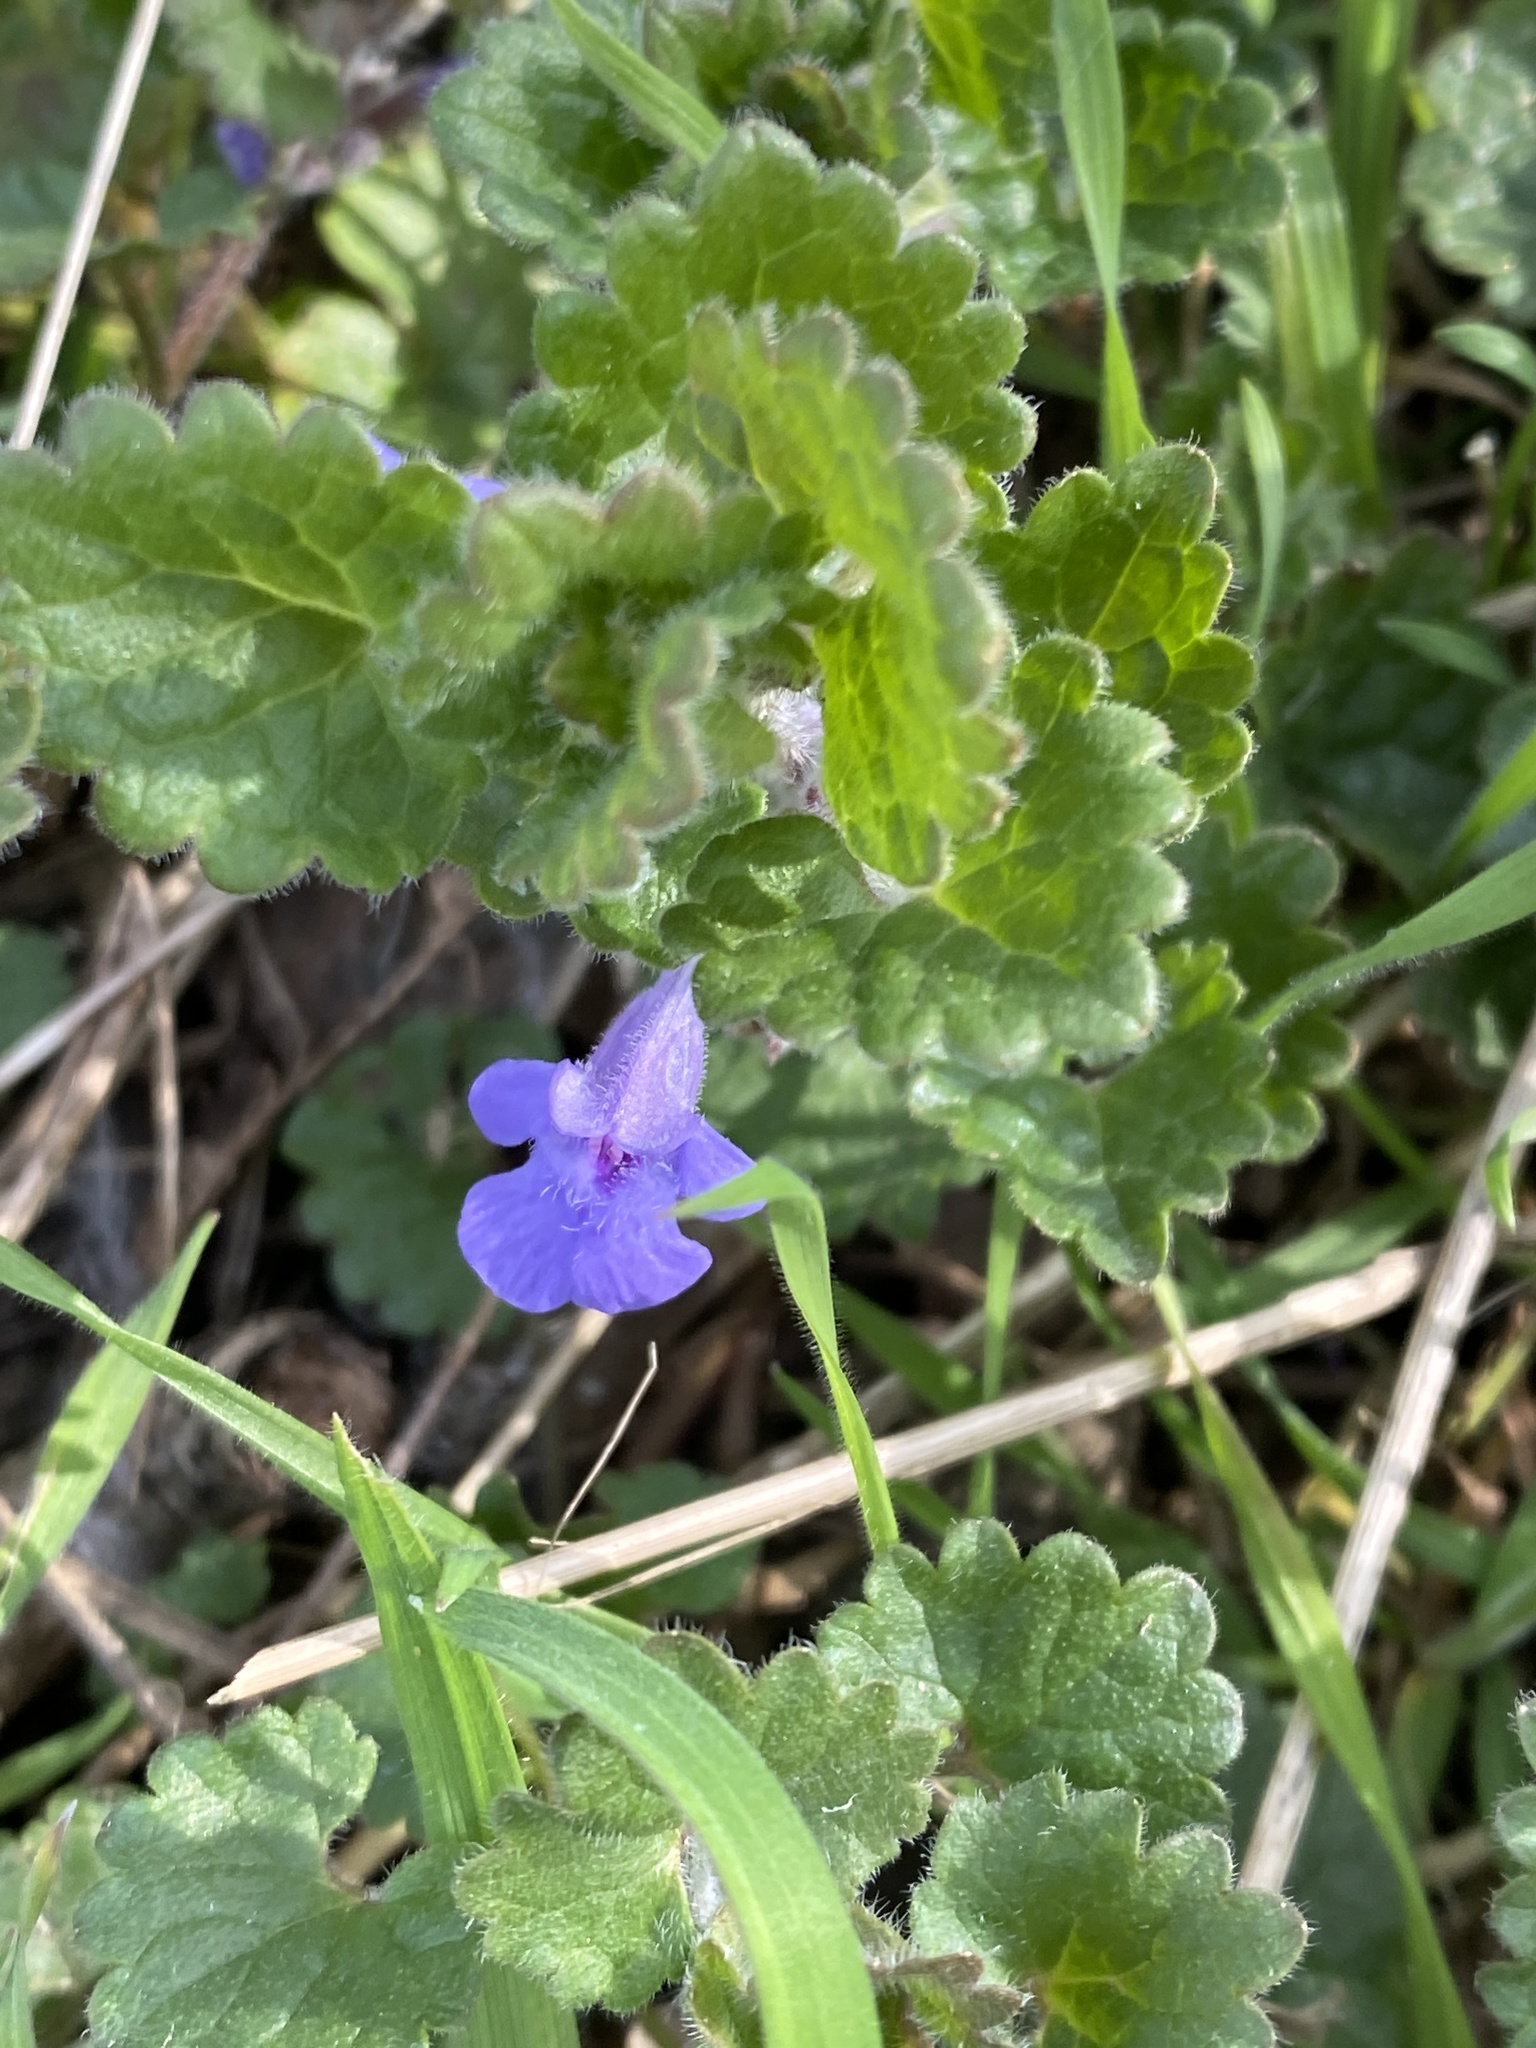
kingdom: Plantae
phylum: Tracheophyta
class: Magnoliopsida
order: Lamiales
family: Lamiaceae
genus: Glechoma
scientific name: Glechoma hederacea
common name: Ground ivy
